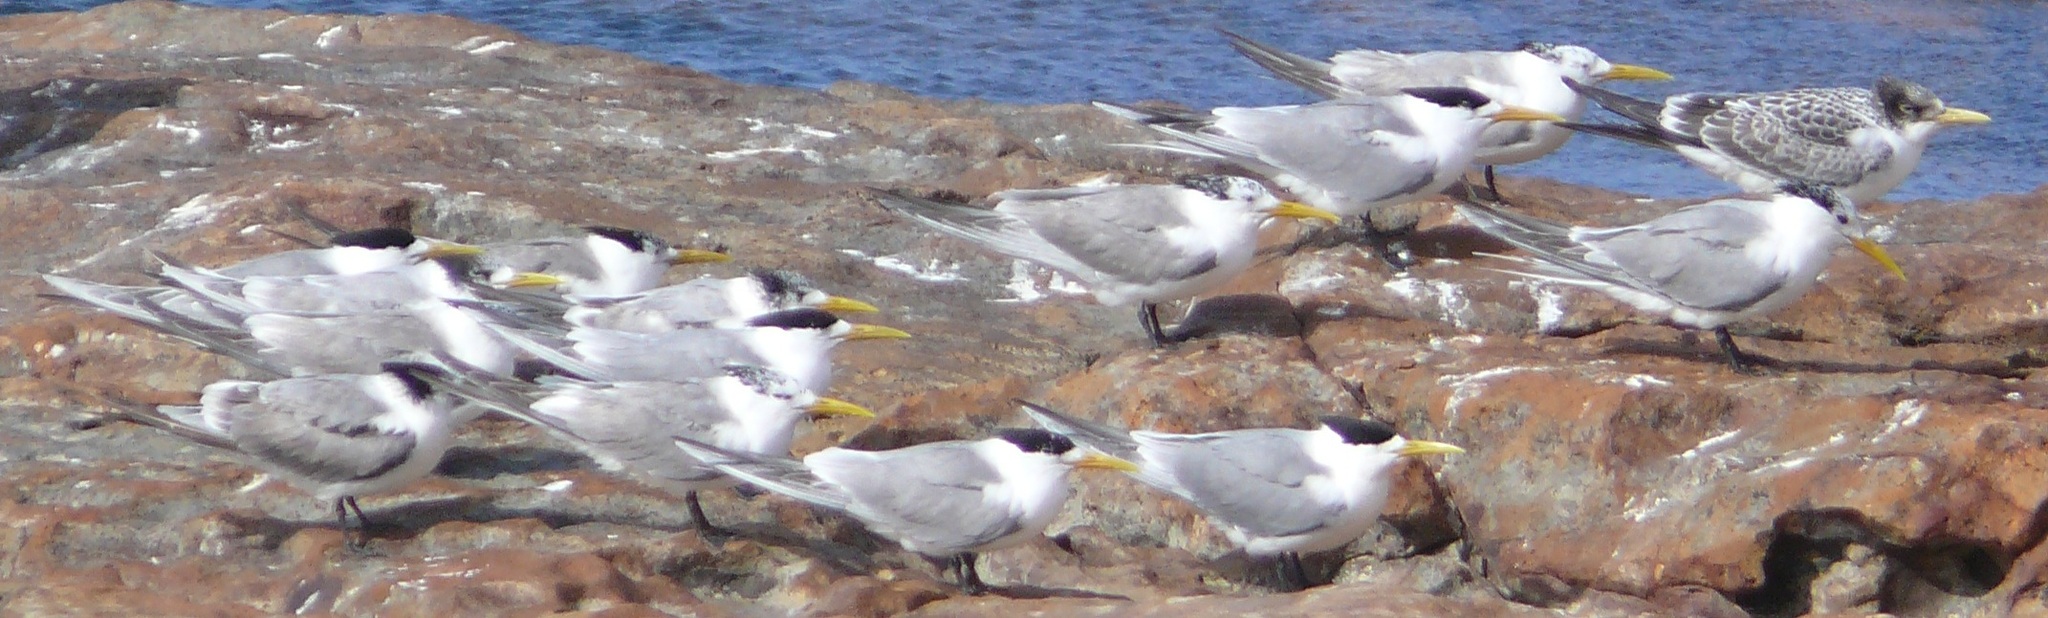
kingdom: Animalia
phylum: Chordata
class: Aves
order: Charadriiformes
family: Laridae
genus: Thalasseus
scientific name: Thalasseus bergii
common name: Greater crested tern
